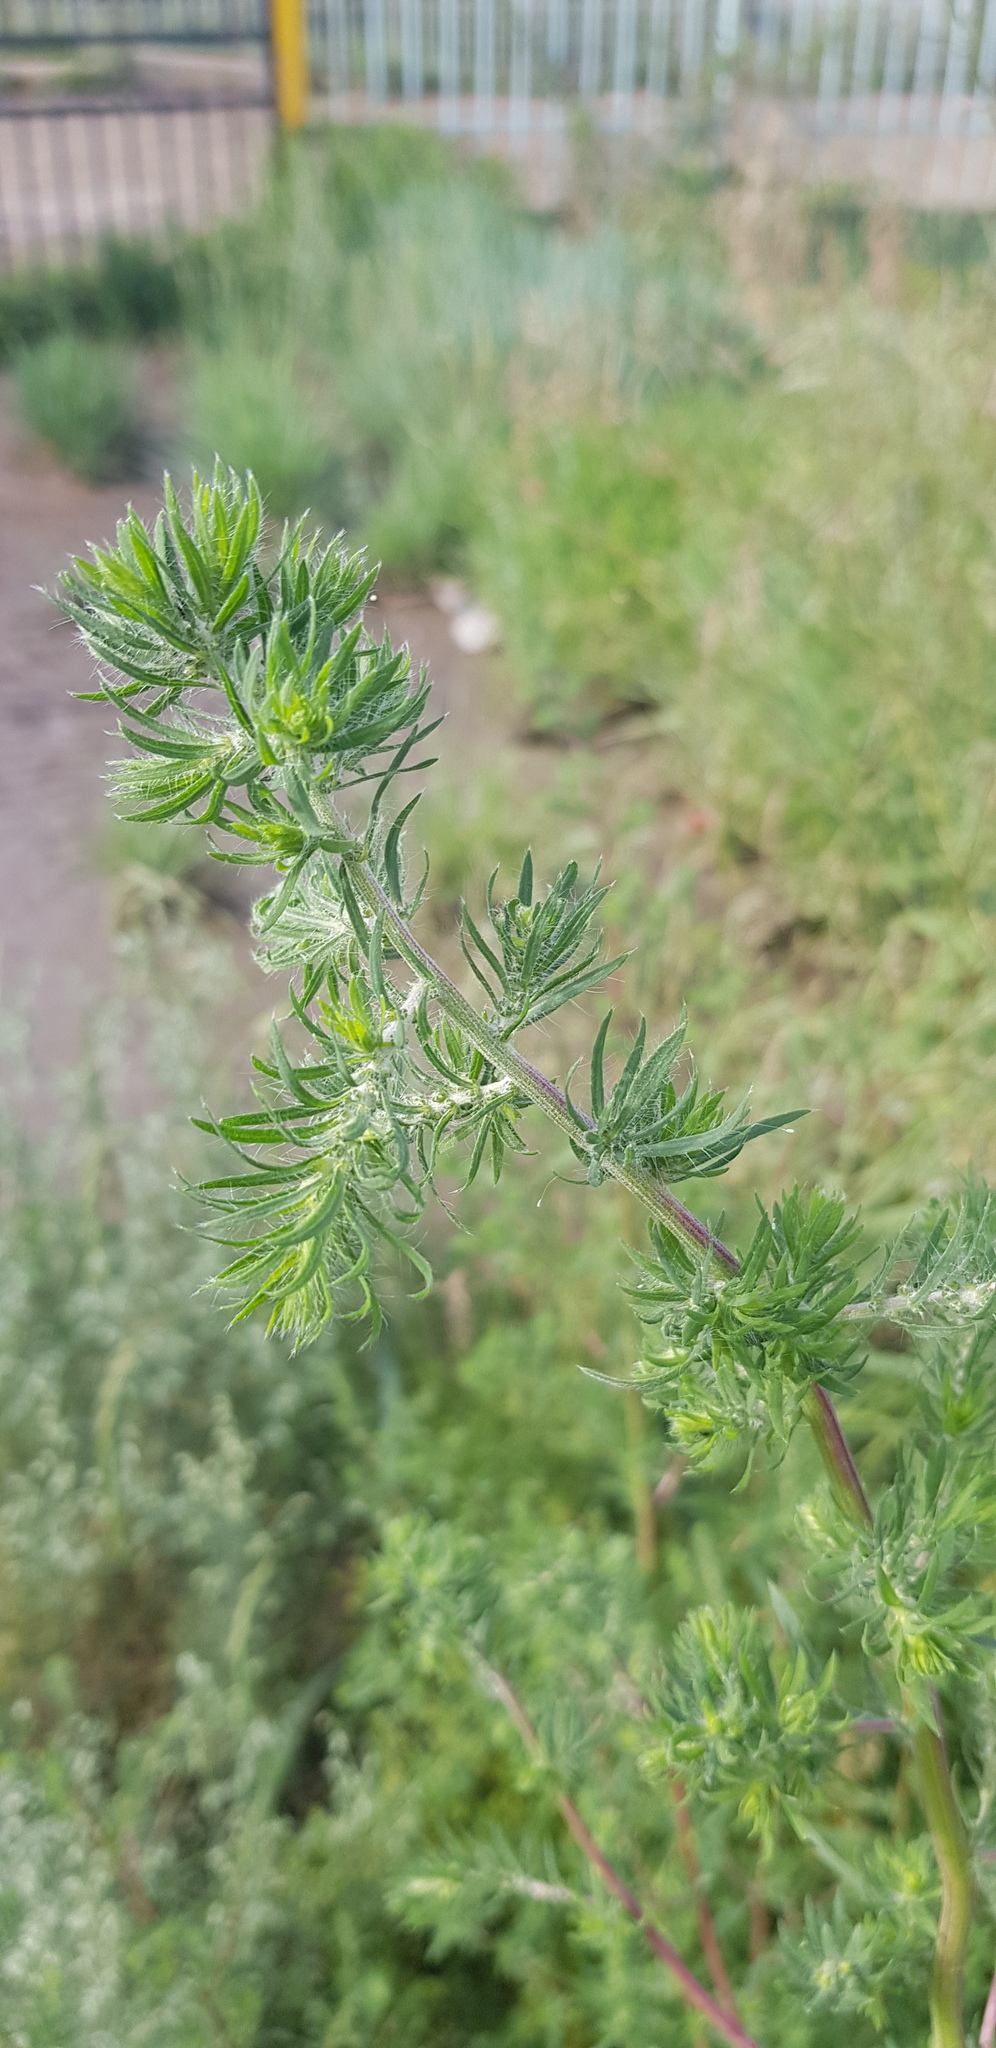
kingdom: Plantae
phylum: Tracheophyta
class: Magnoliopsida
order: Caryophyllales
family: Amaranthaceae
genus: Bassia
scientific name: Bassia scoparia
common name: Belvedere
